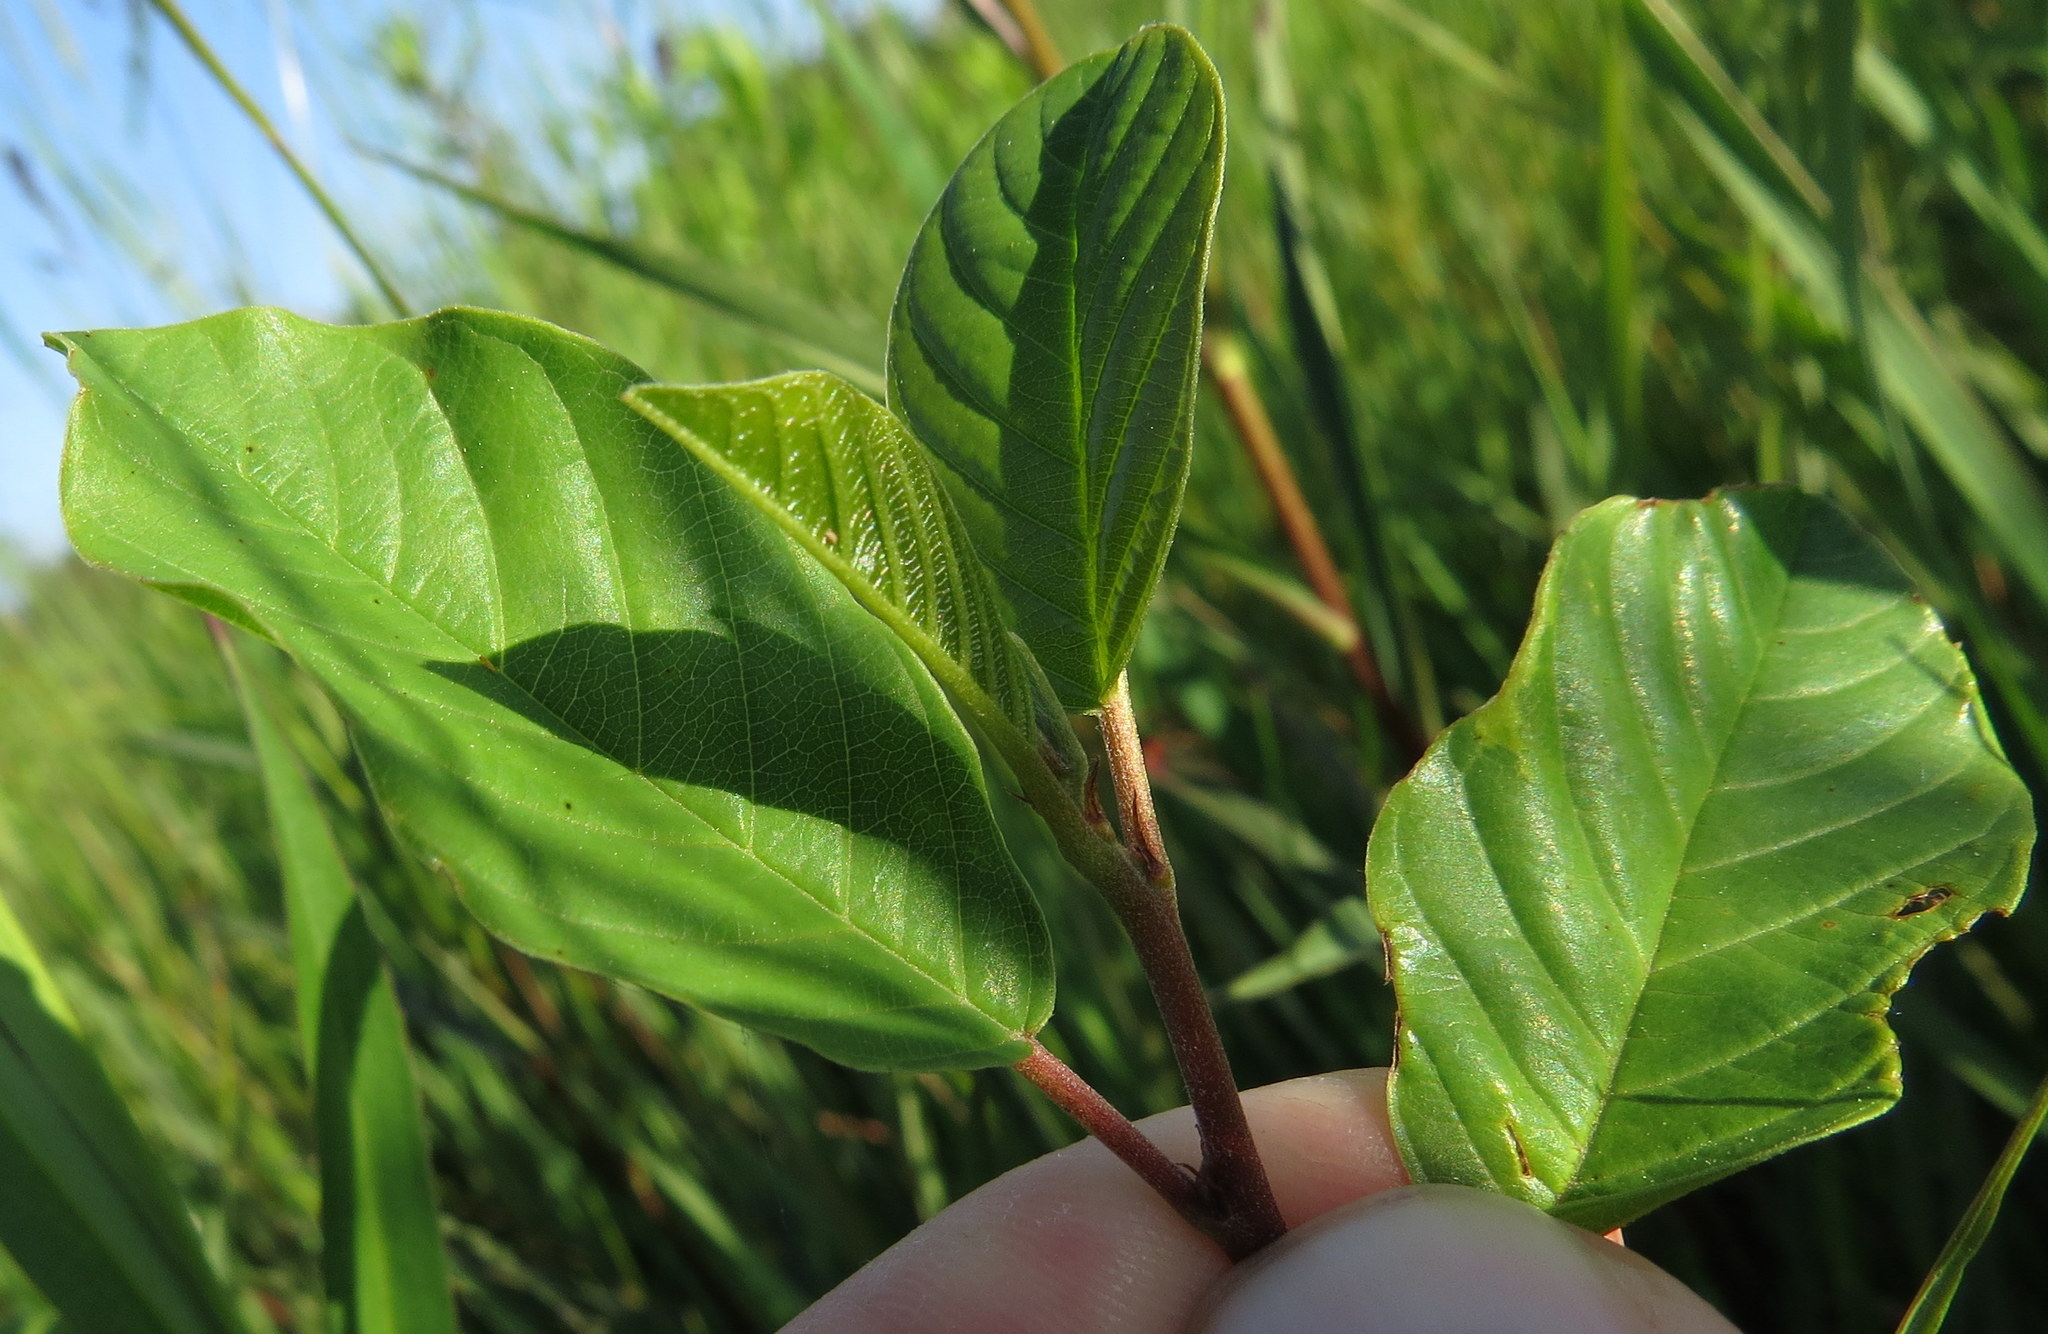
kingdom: Plantae
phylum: Tracheophyta
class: Magnoliopsida
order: Rosales
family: Rhamnaceae
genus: Frangula
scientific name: Frangula alnus
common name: Alder buckthorn
